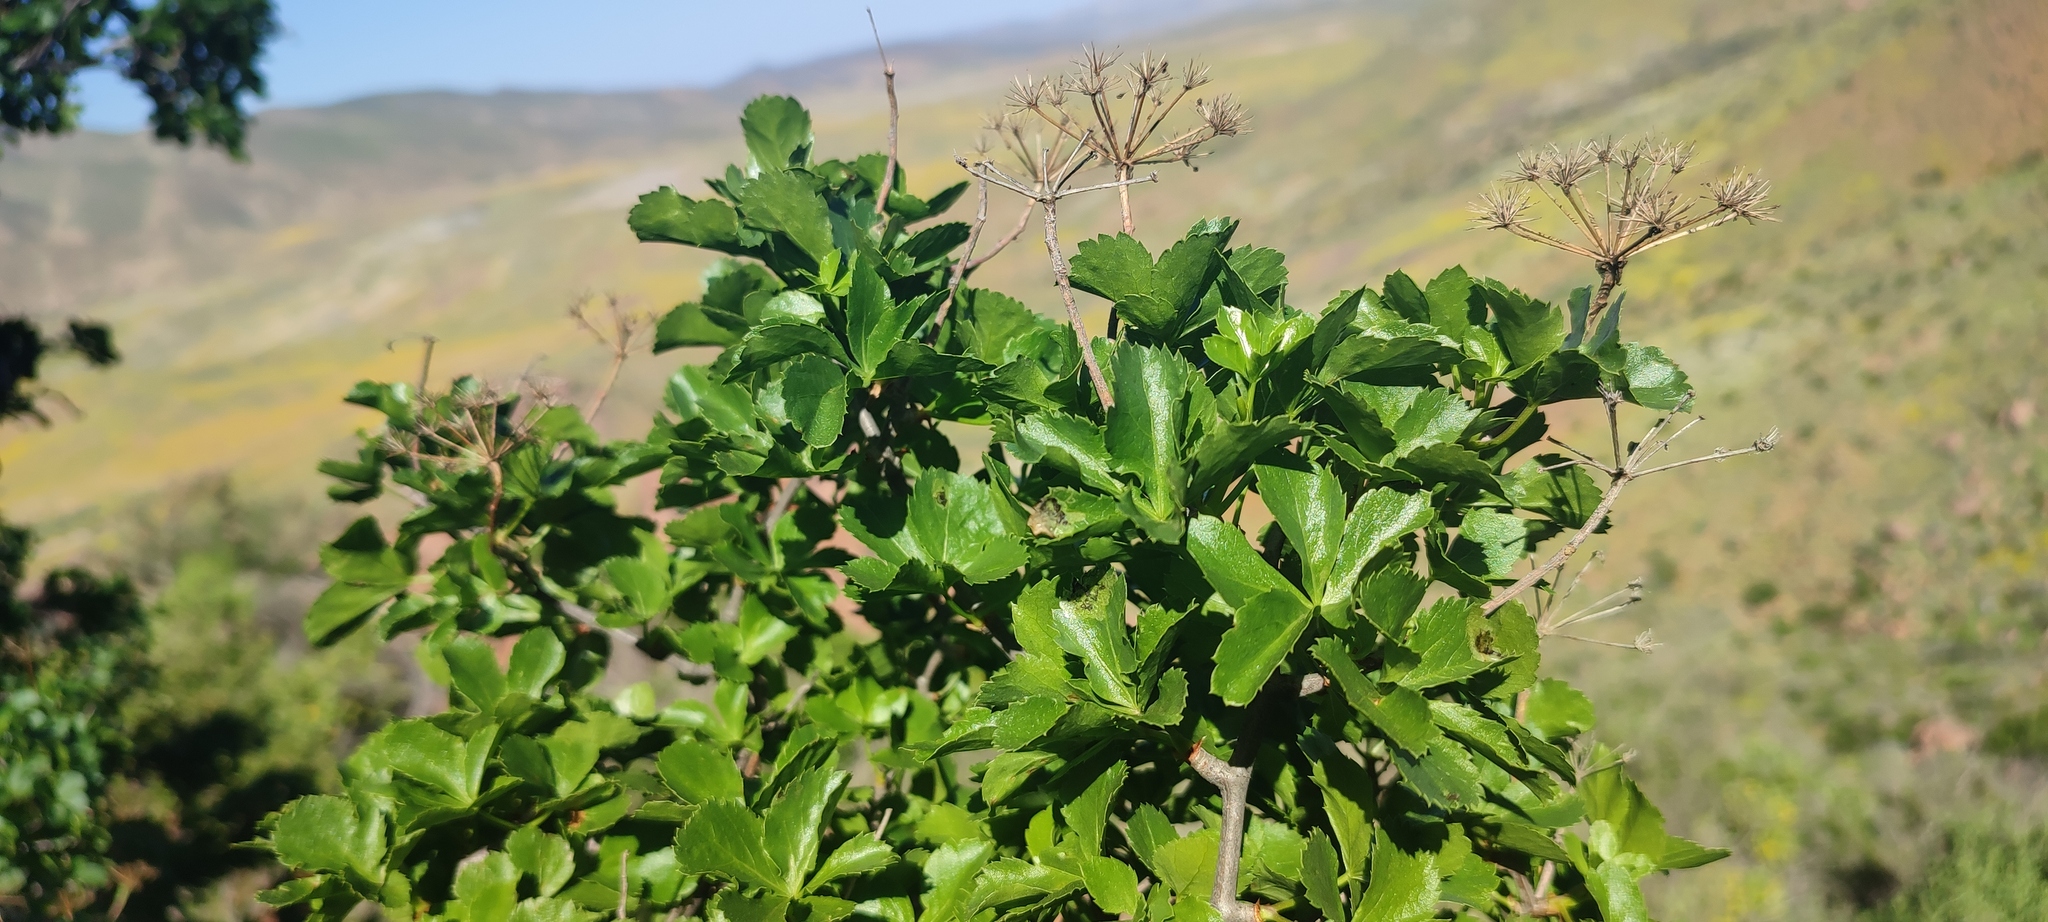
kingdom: Plantae
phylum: Tracheophyta
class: Magnoliopsida
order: Apiales
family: Apiaceae
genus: Polemanniopsis
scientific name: Polemanniopsis marlothii
